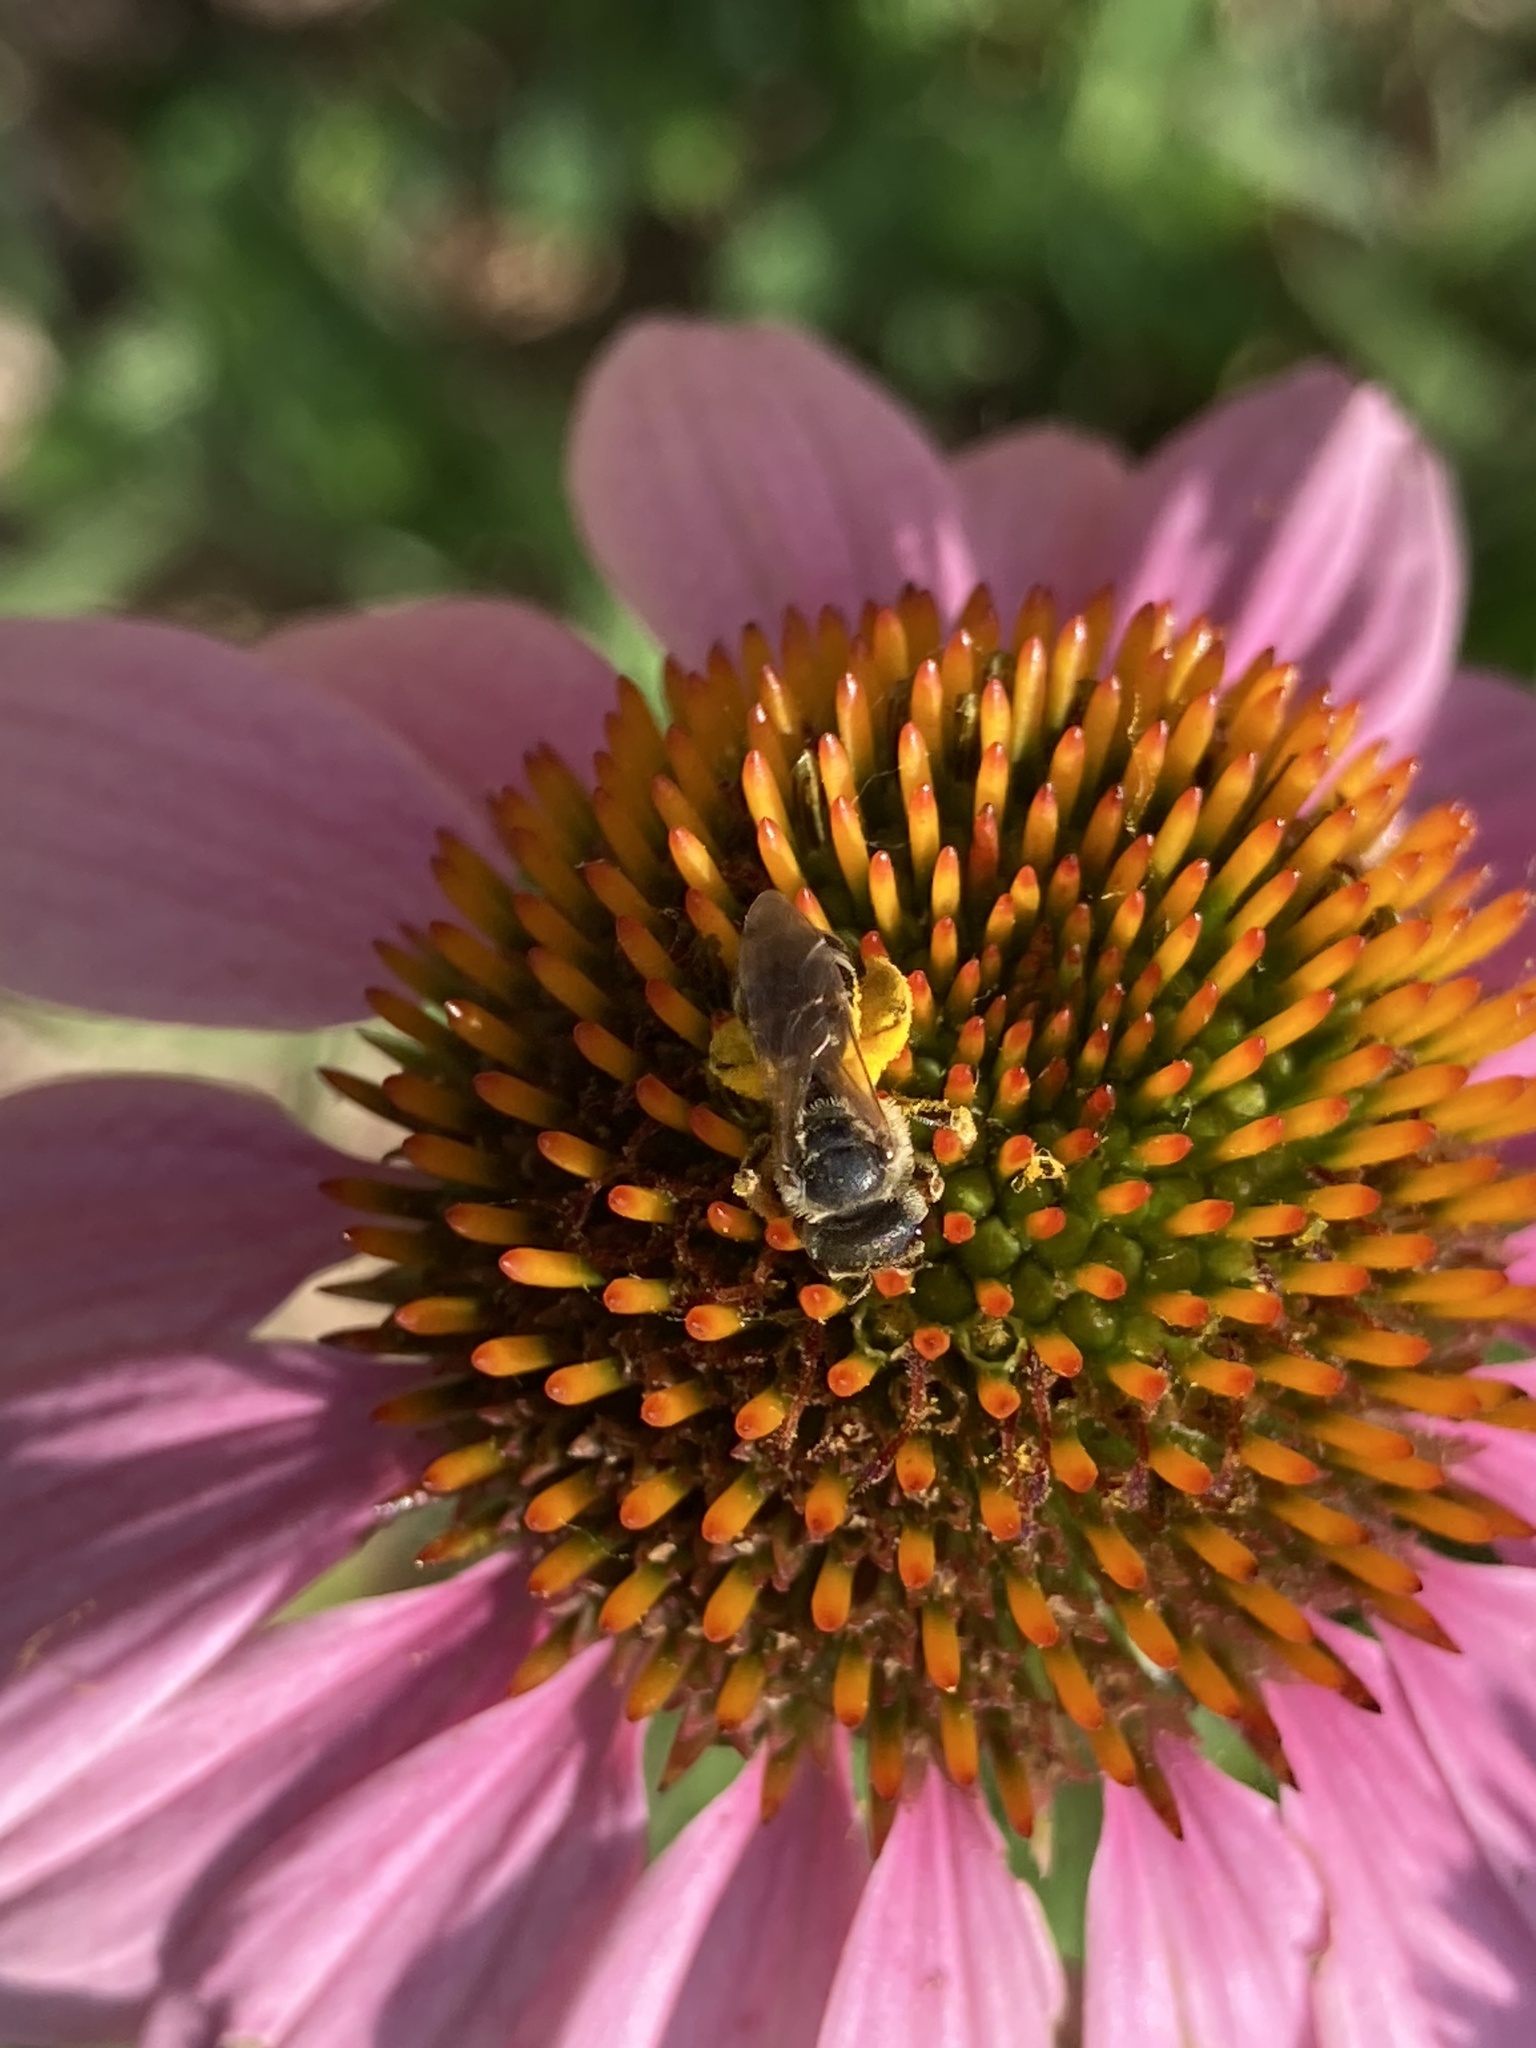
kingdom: Animalia
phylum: Arthropoda
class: Insecta
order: Hymenoptera
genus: Odontalictus
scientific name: Odontalictus
